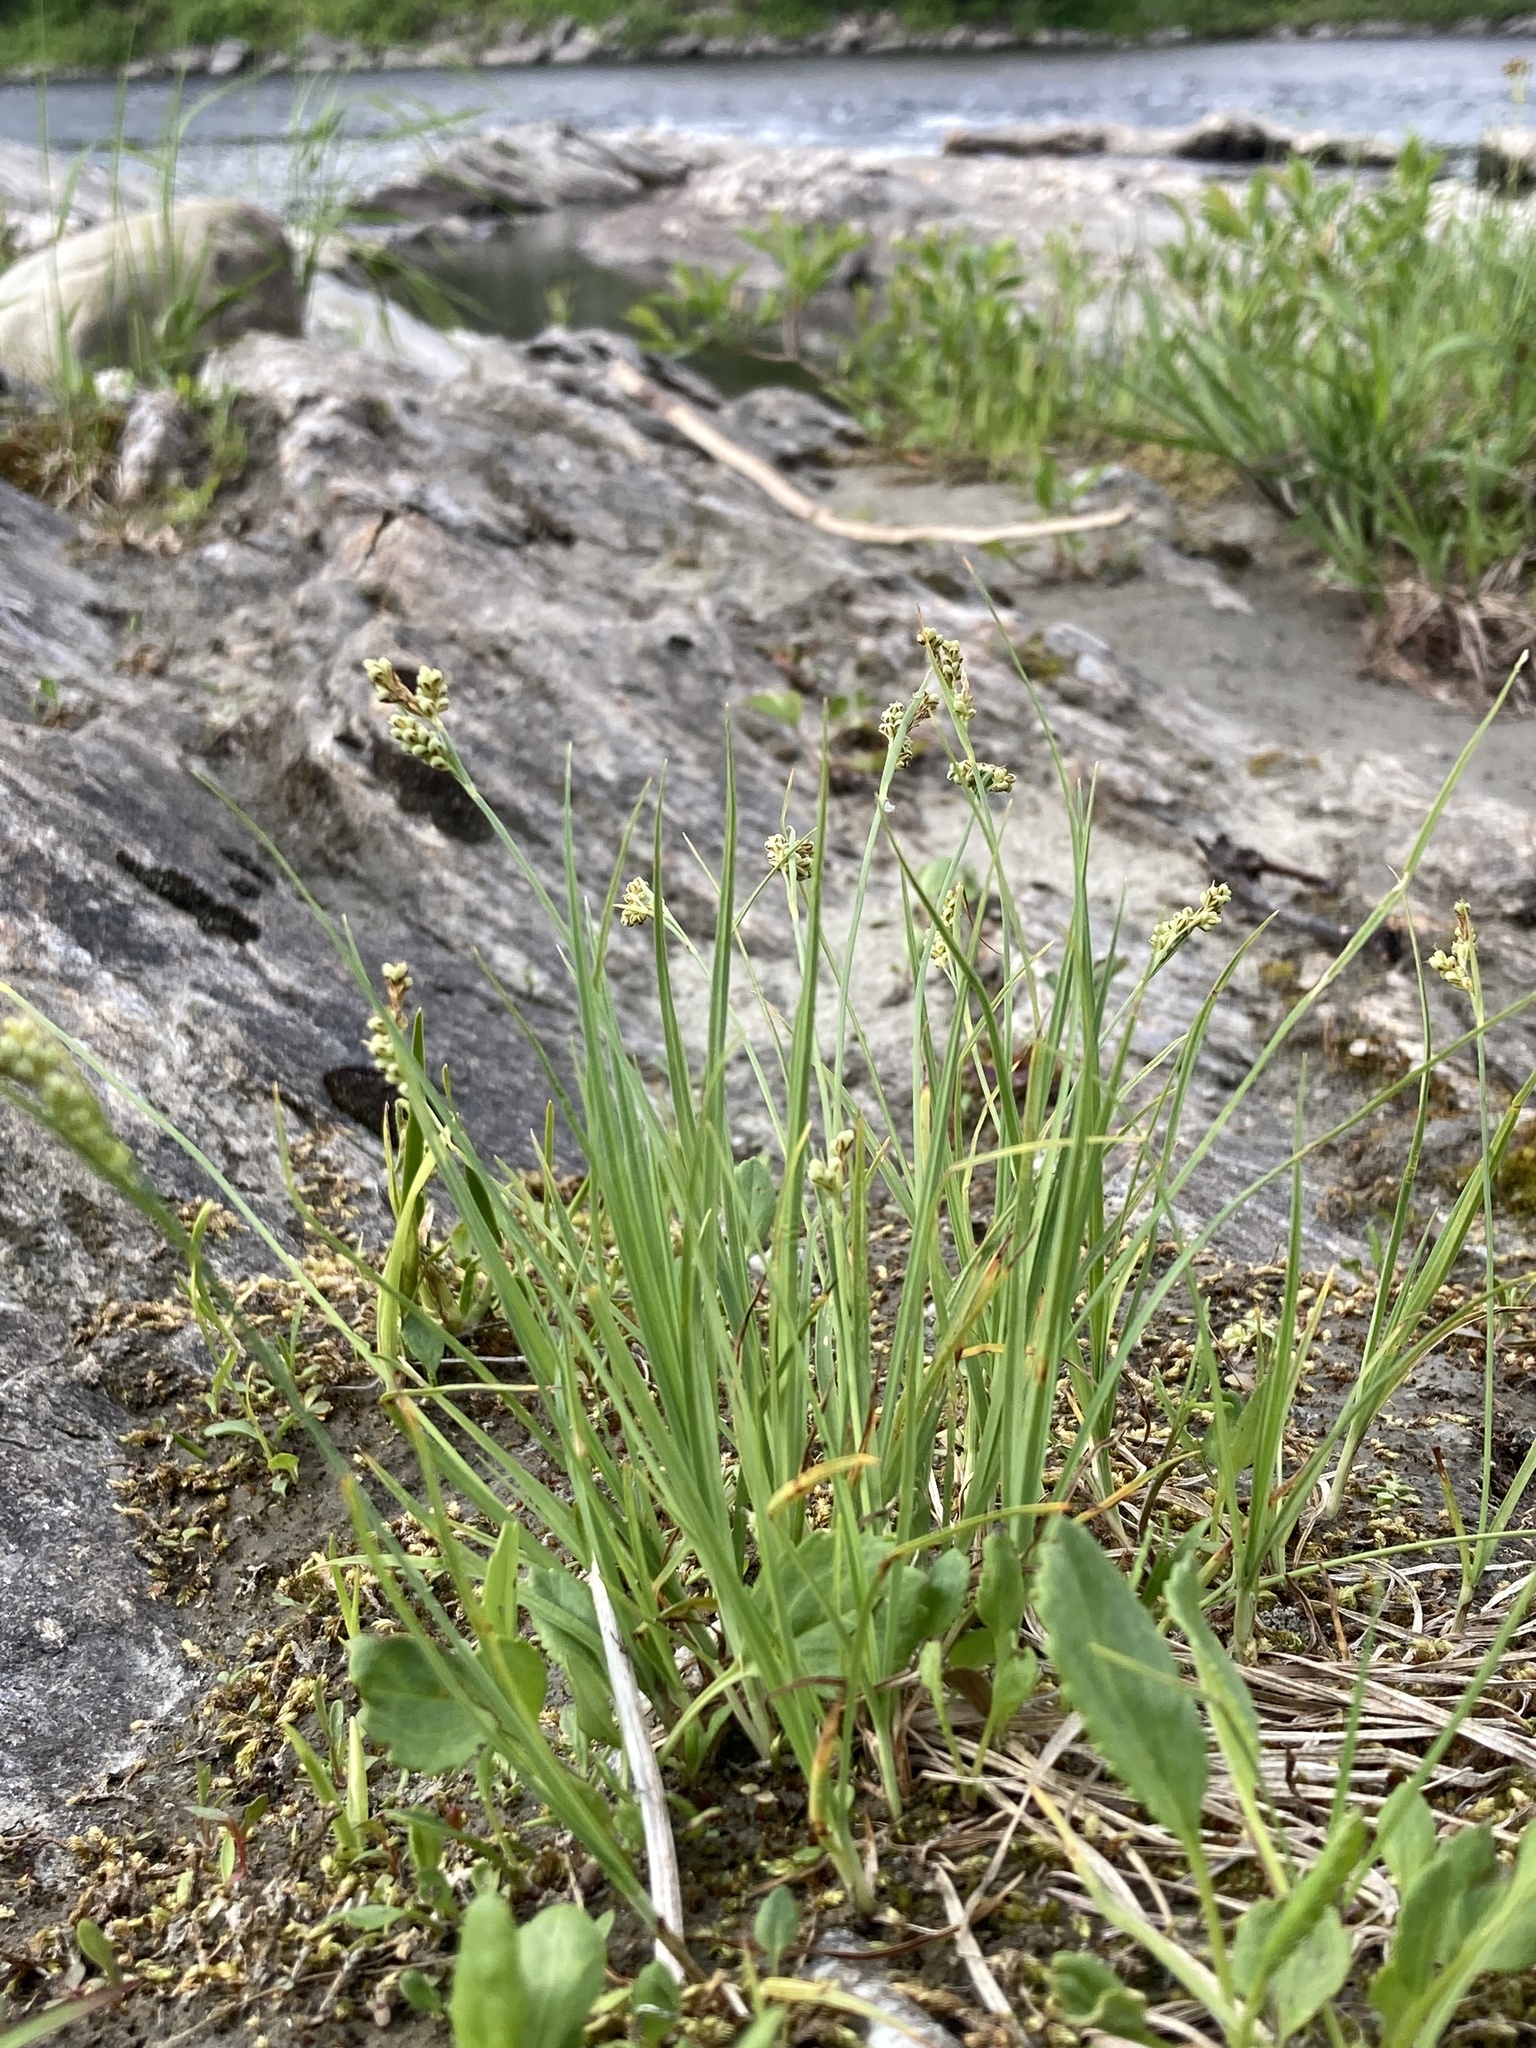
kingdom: Plantae
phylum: Tracheophyta
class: Liliopsida
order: Poales
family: Cyperaceae
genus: Carex
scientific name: Carex garberi
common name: Elk sedge
